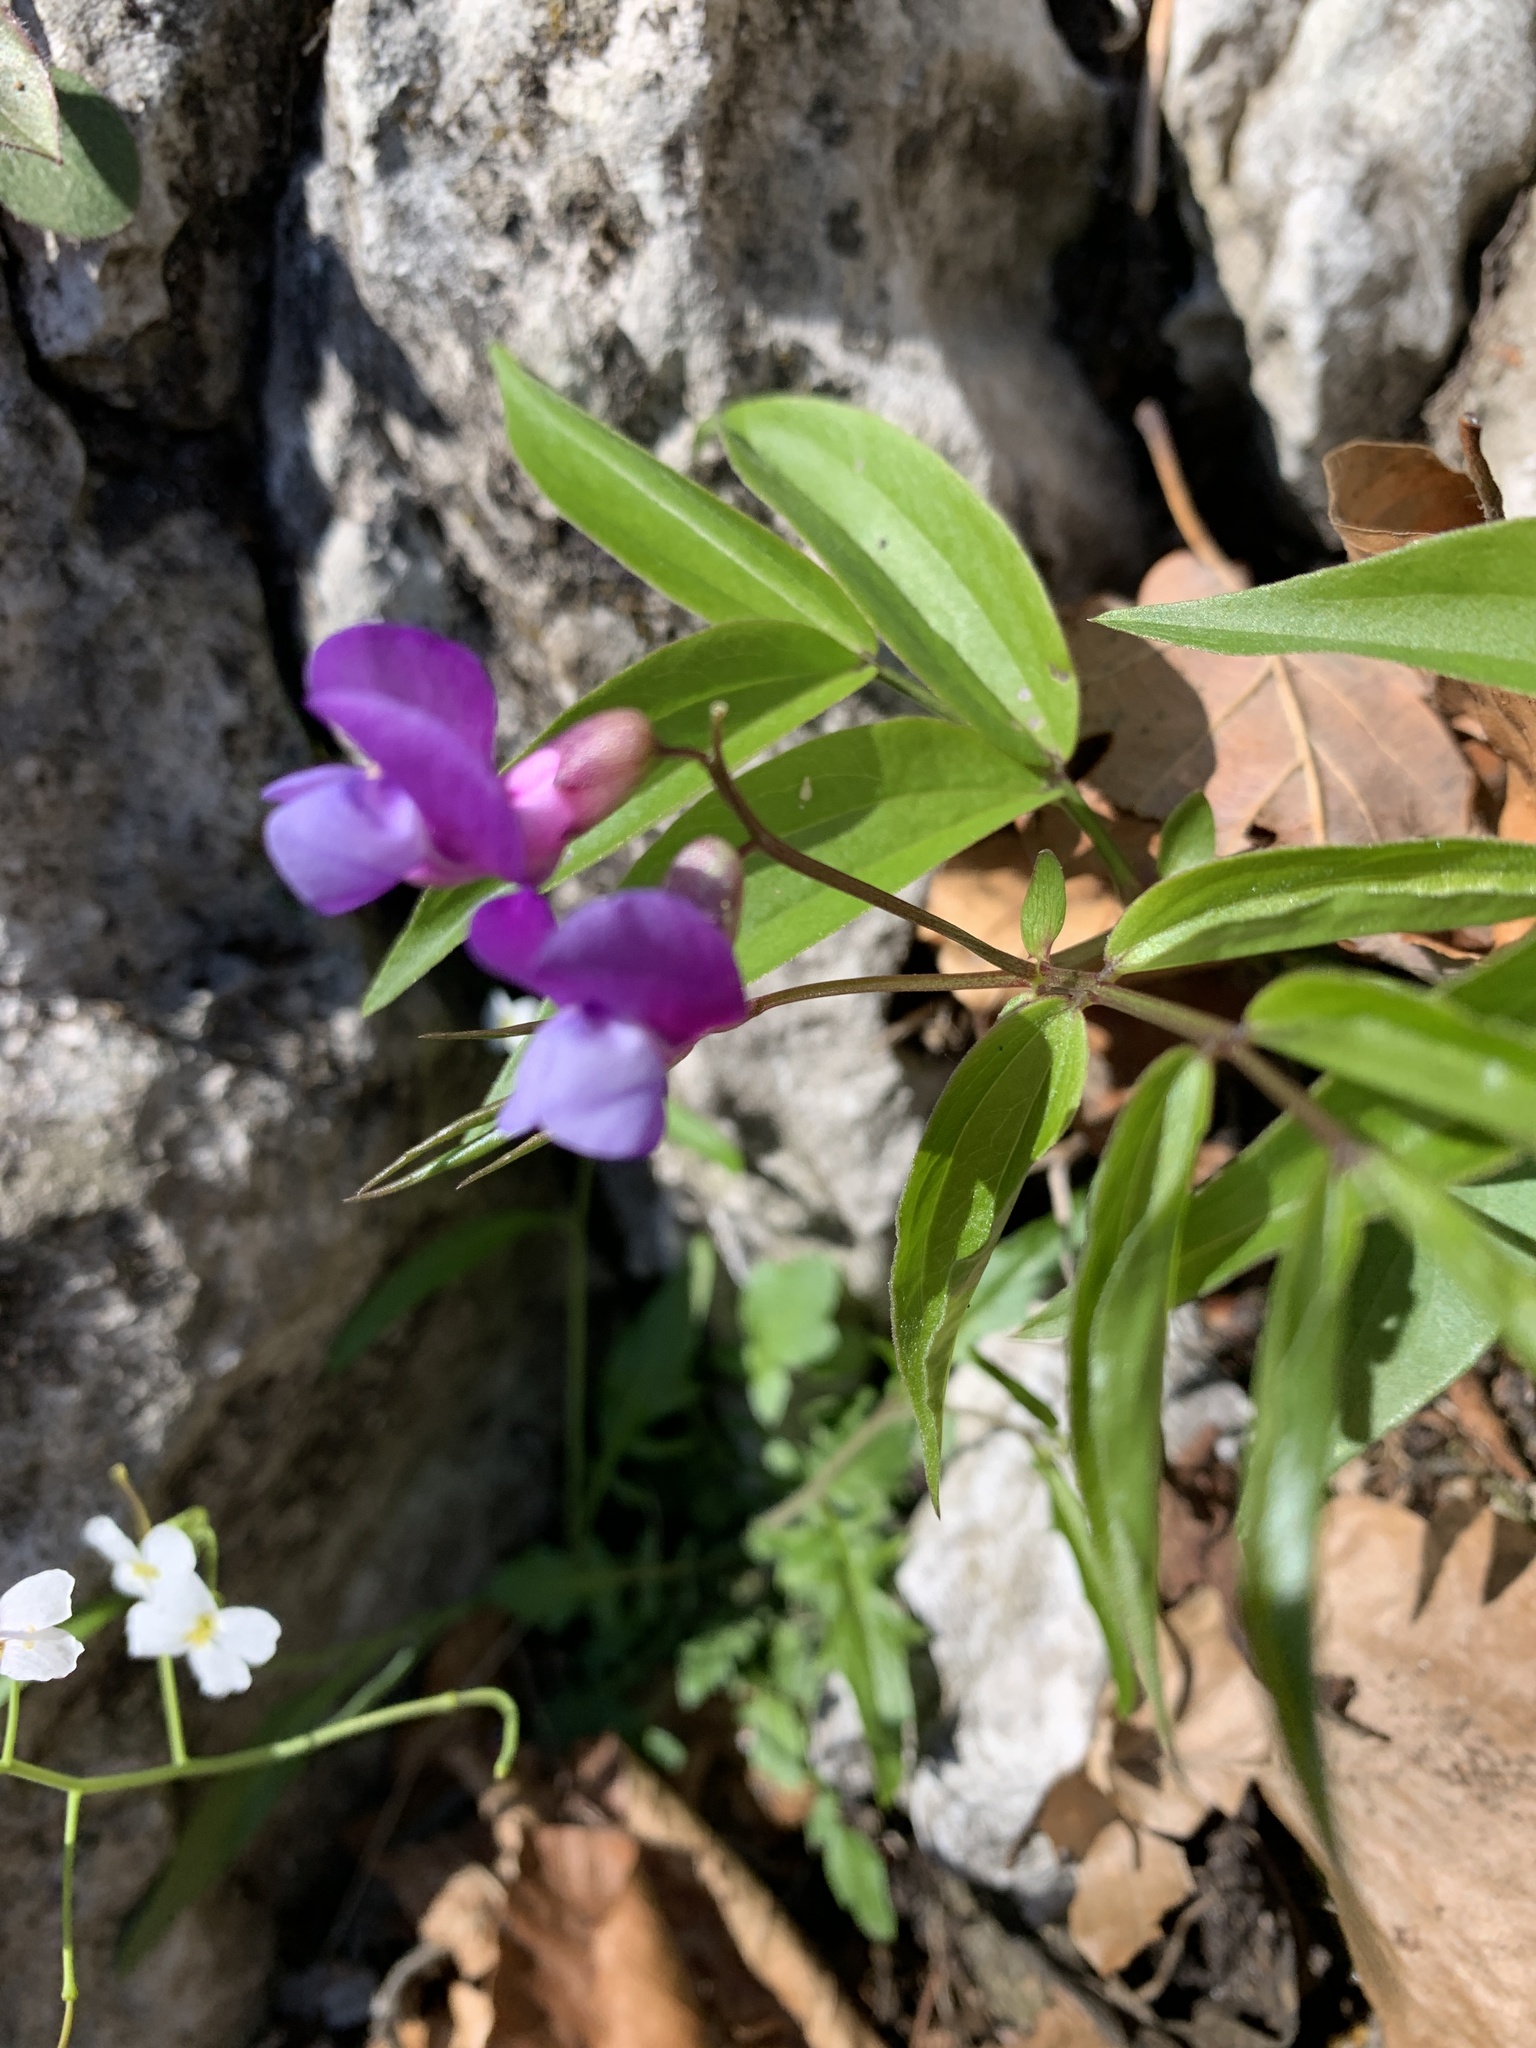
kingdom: Plantae
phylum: Tracheophyta
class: Magnoliopsida
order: Fabales
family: Fabaceae
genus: Lathyrus
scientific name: Lathyrus vernus
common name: Spring pea
